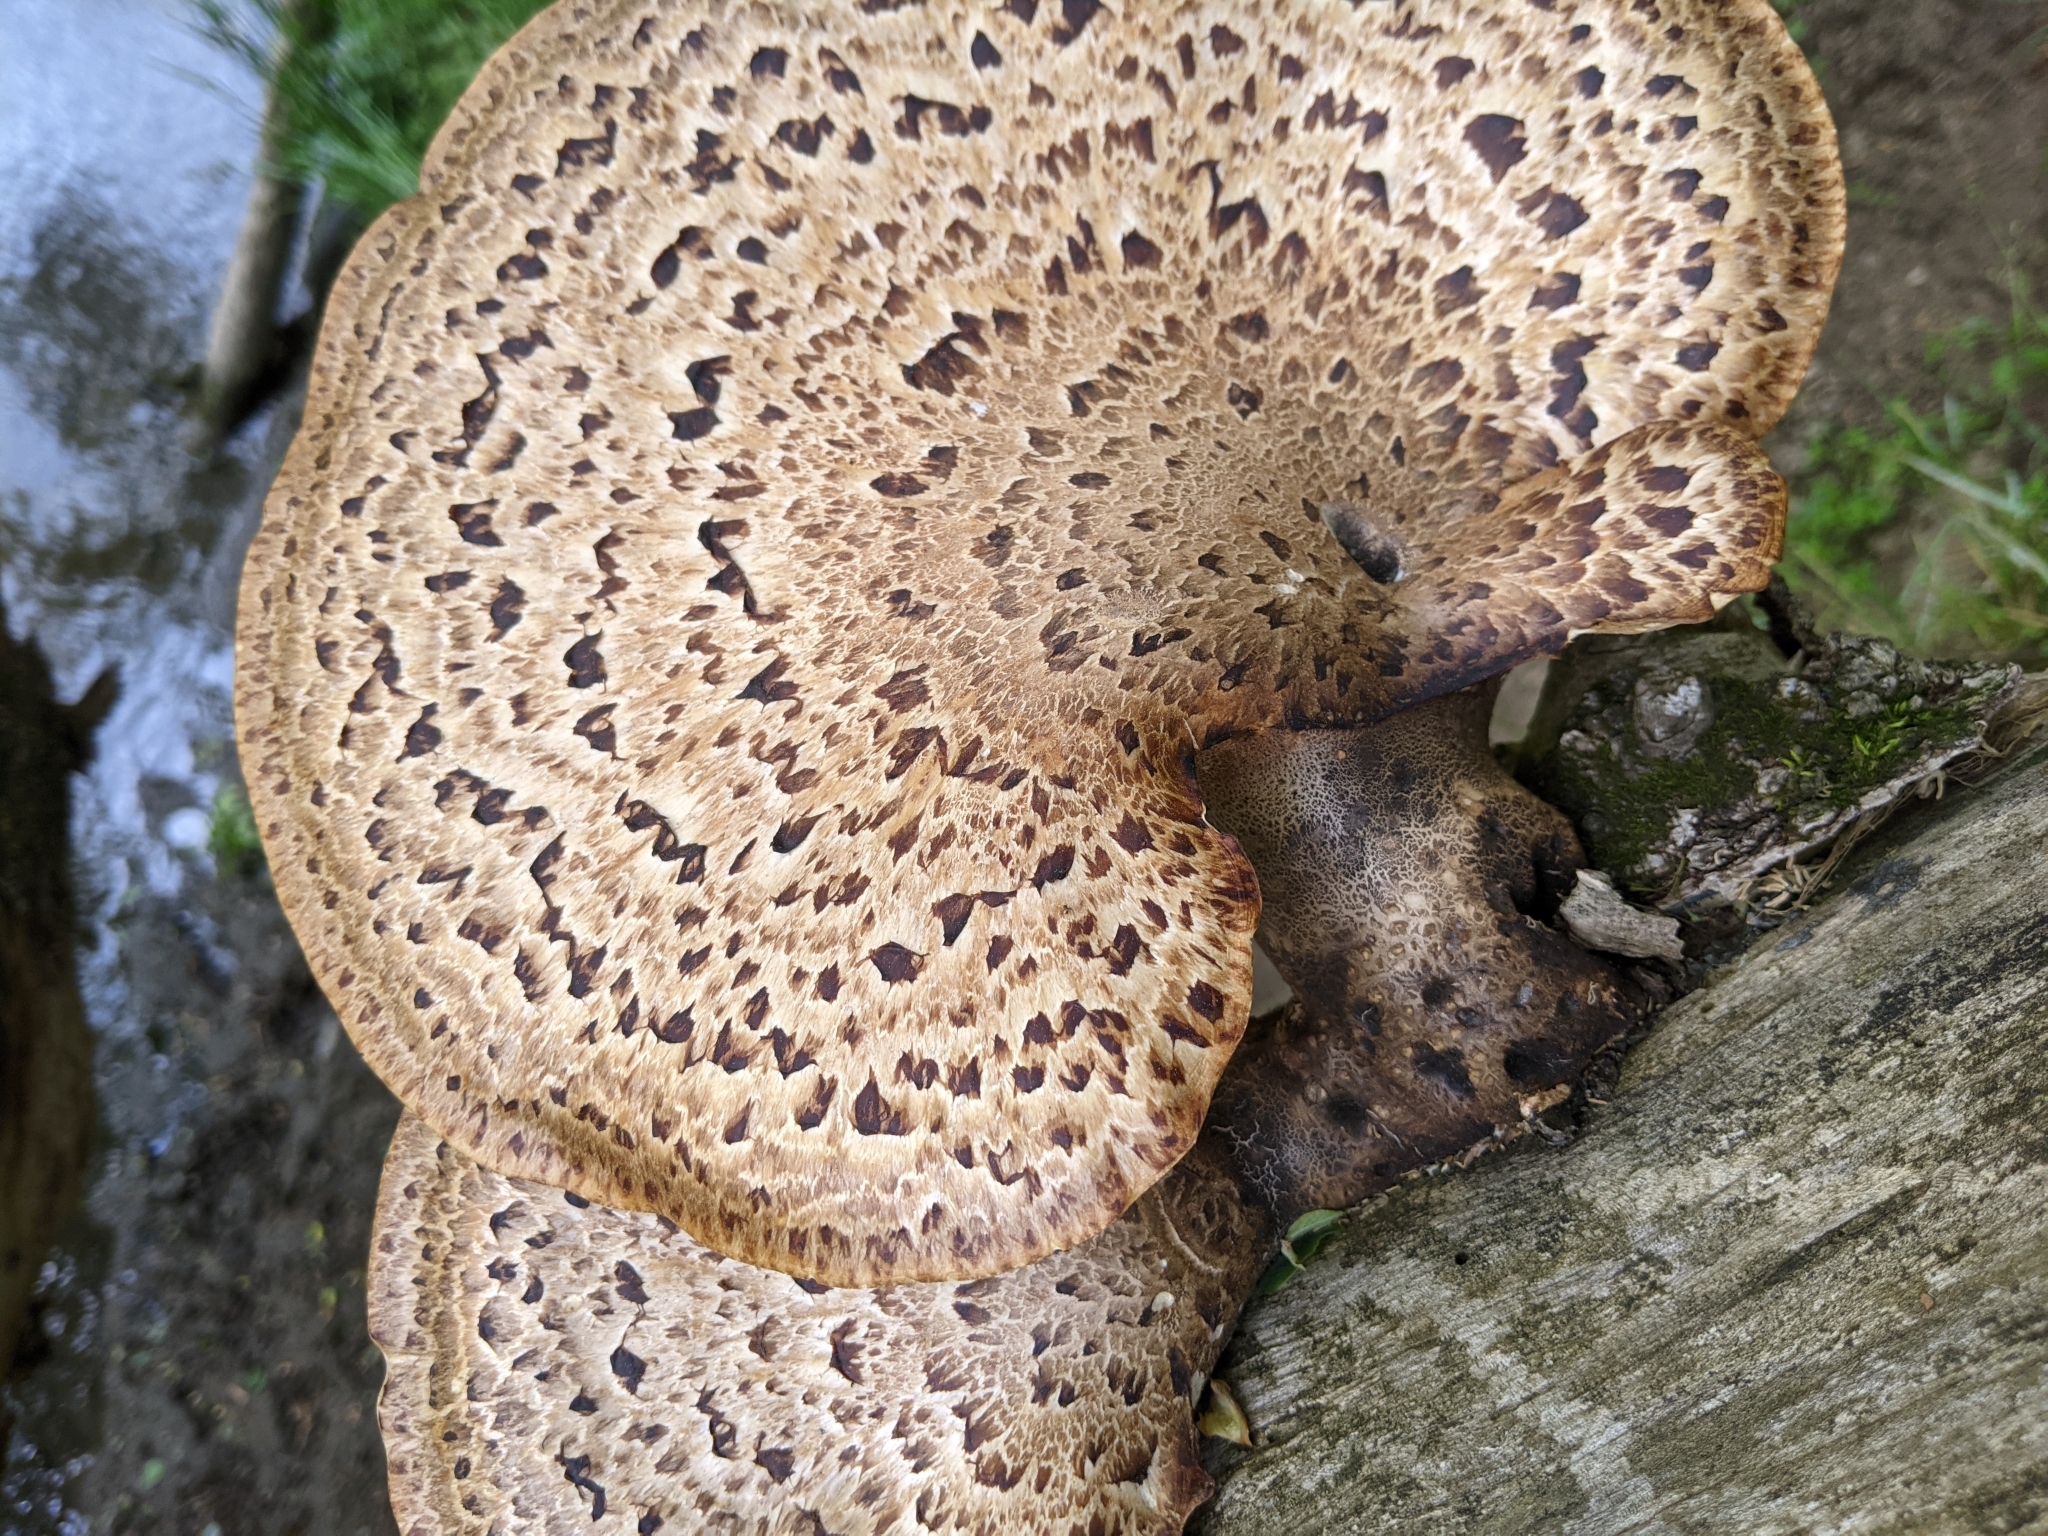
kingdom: Fungi
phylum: Basidiomycota
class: Agaricomycetes
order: Polyporales
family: Polyporaceae
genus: Cerioporus
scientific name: Cerioporus squamosus
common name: Dryad's saddle
